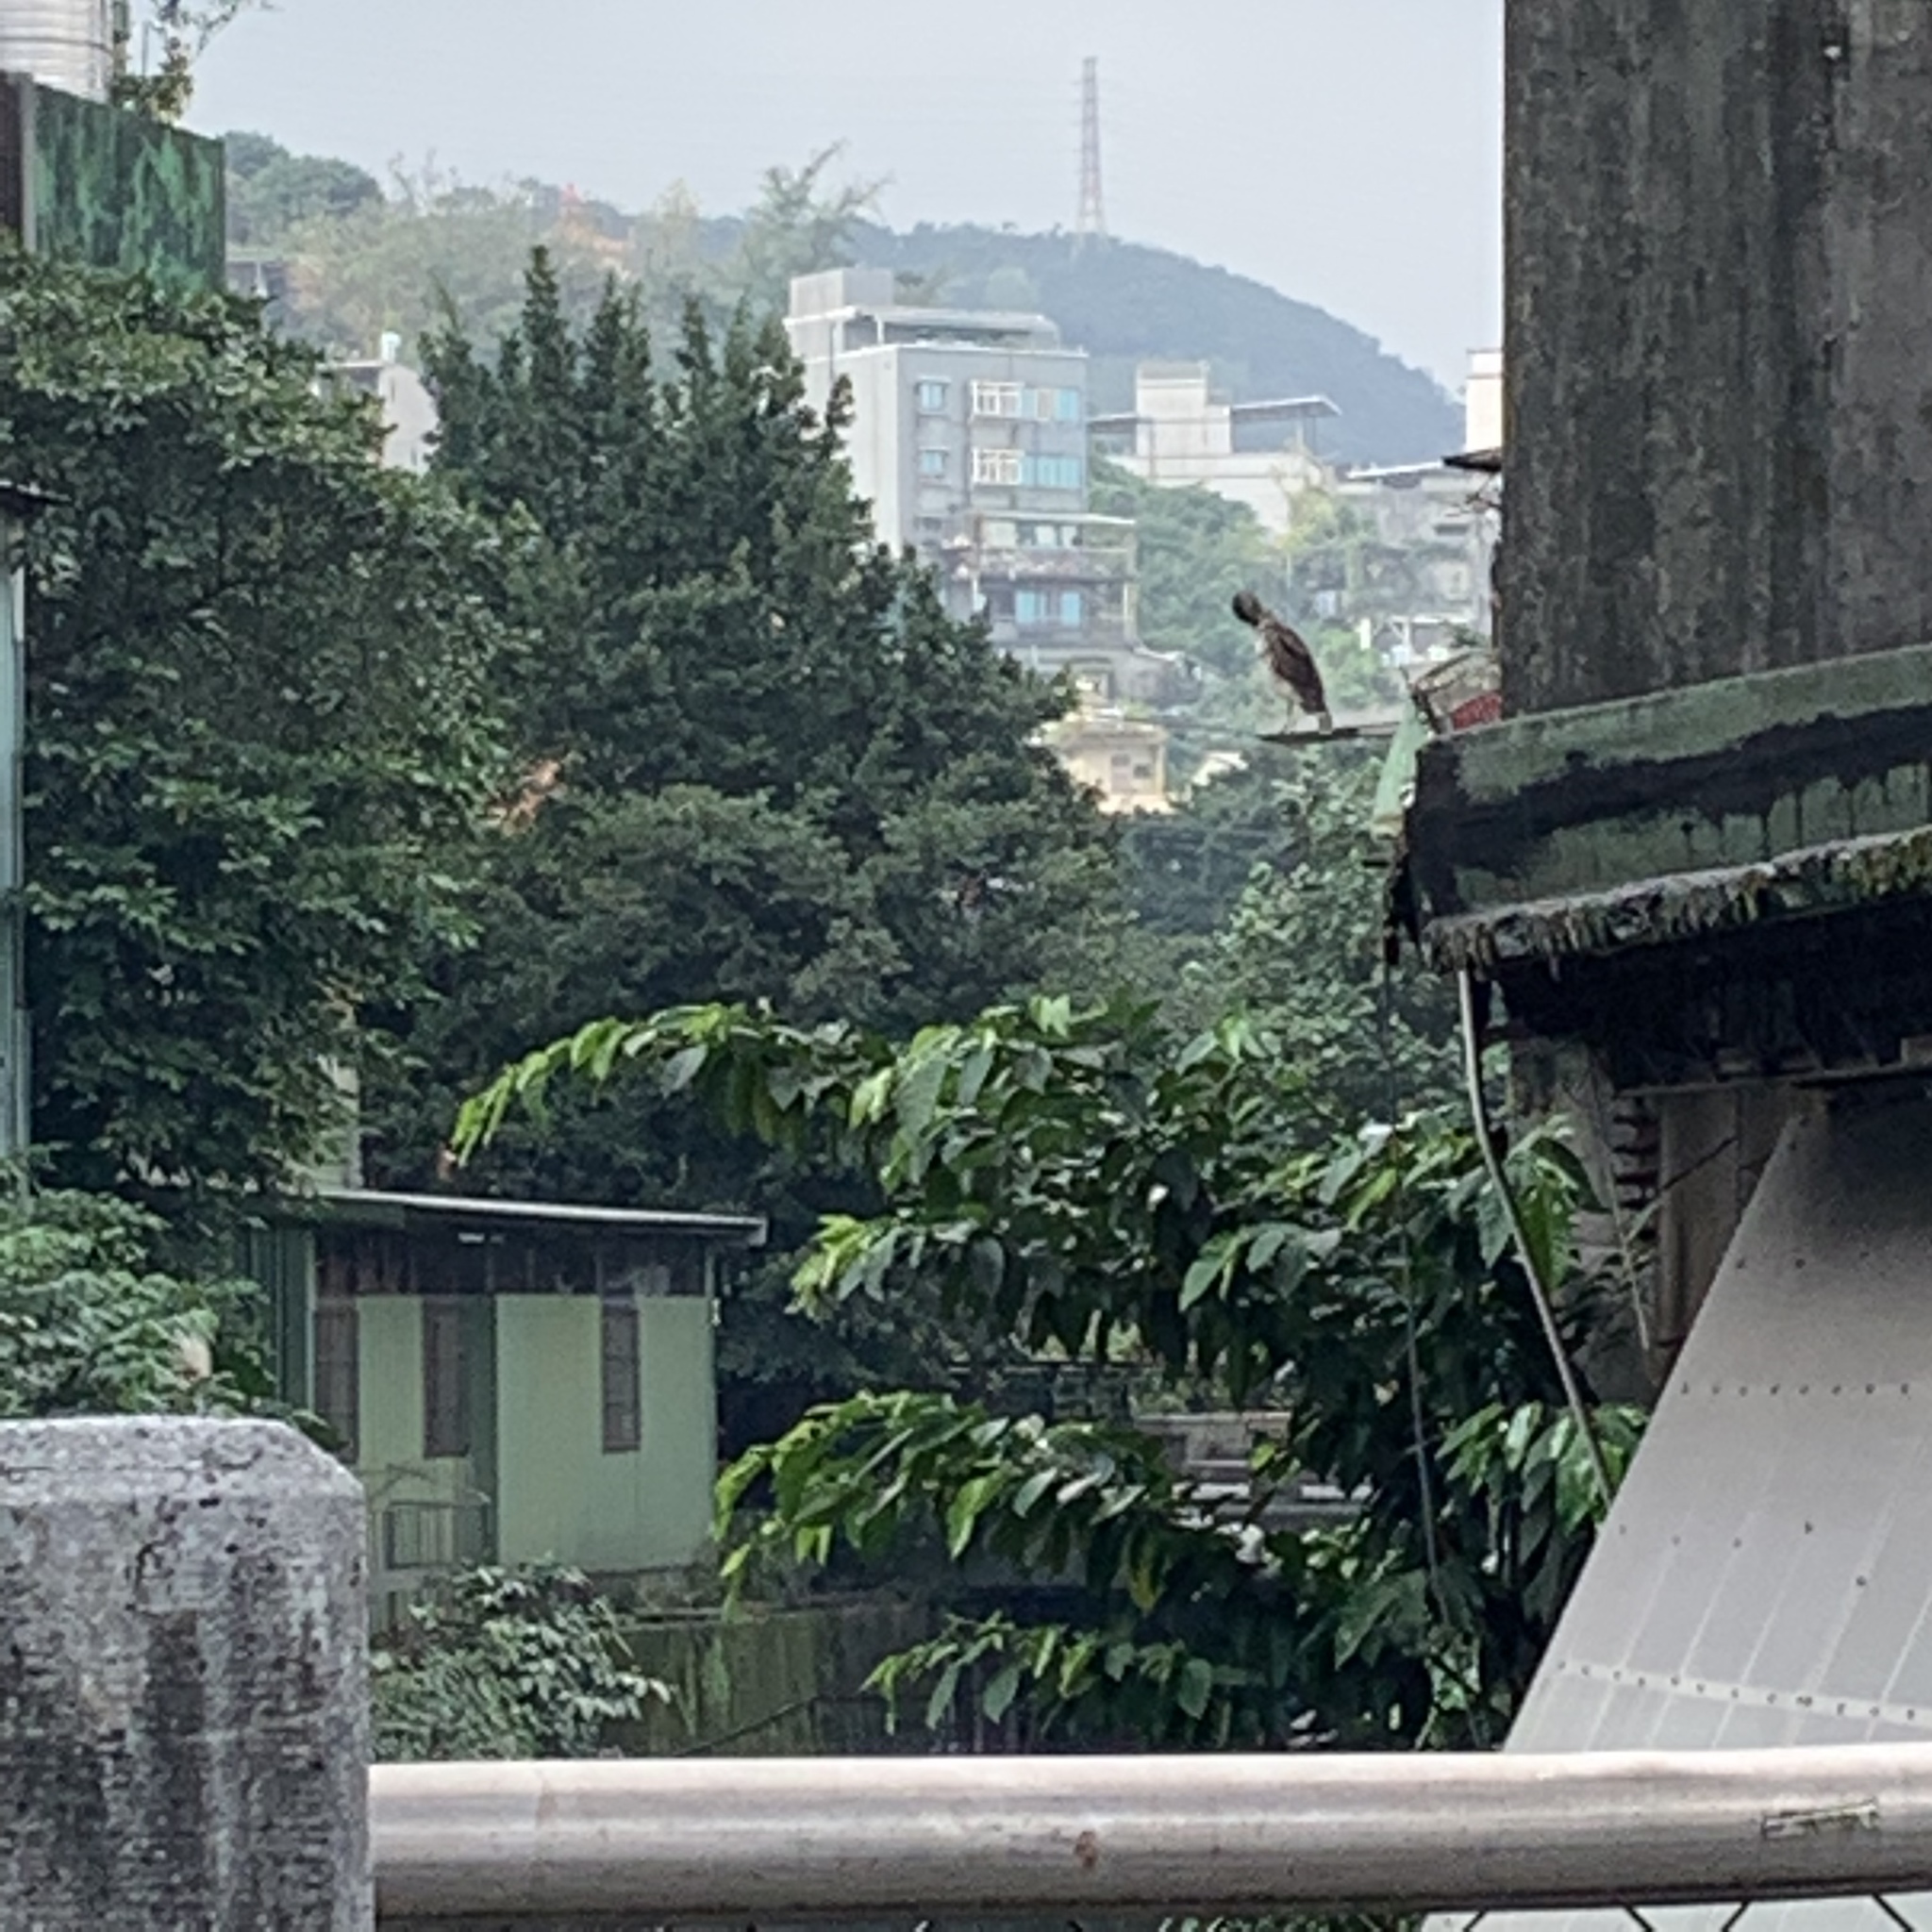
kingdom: Animalia
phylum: Chordata
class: Aves
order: Pelecaniformes
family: Ardeidae
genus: Nycticorax
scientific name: Nycticorax nycticorax
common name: Black-crowned night heron
